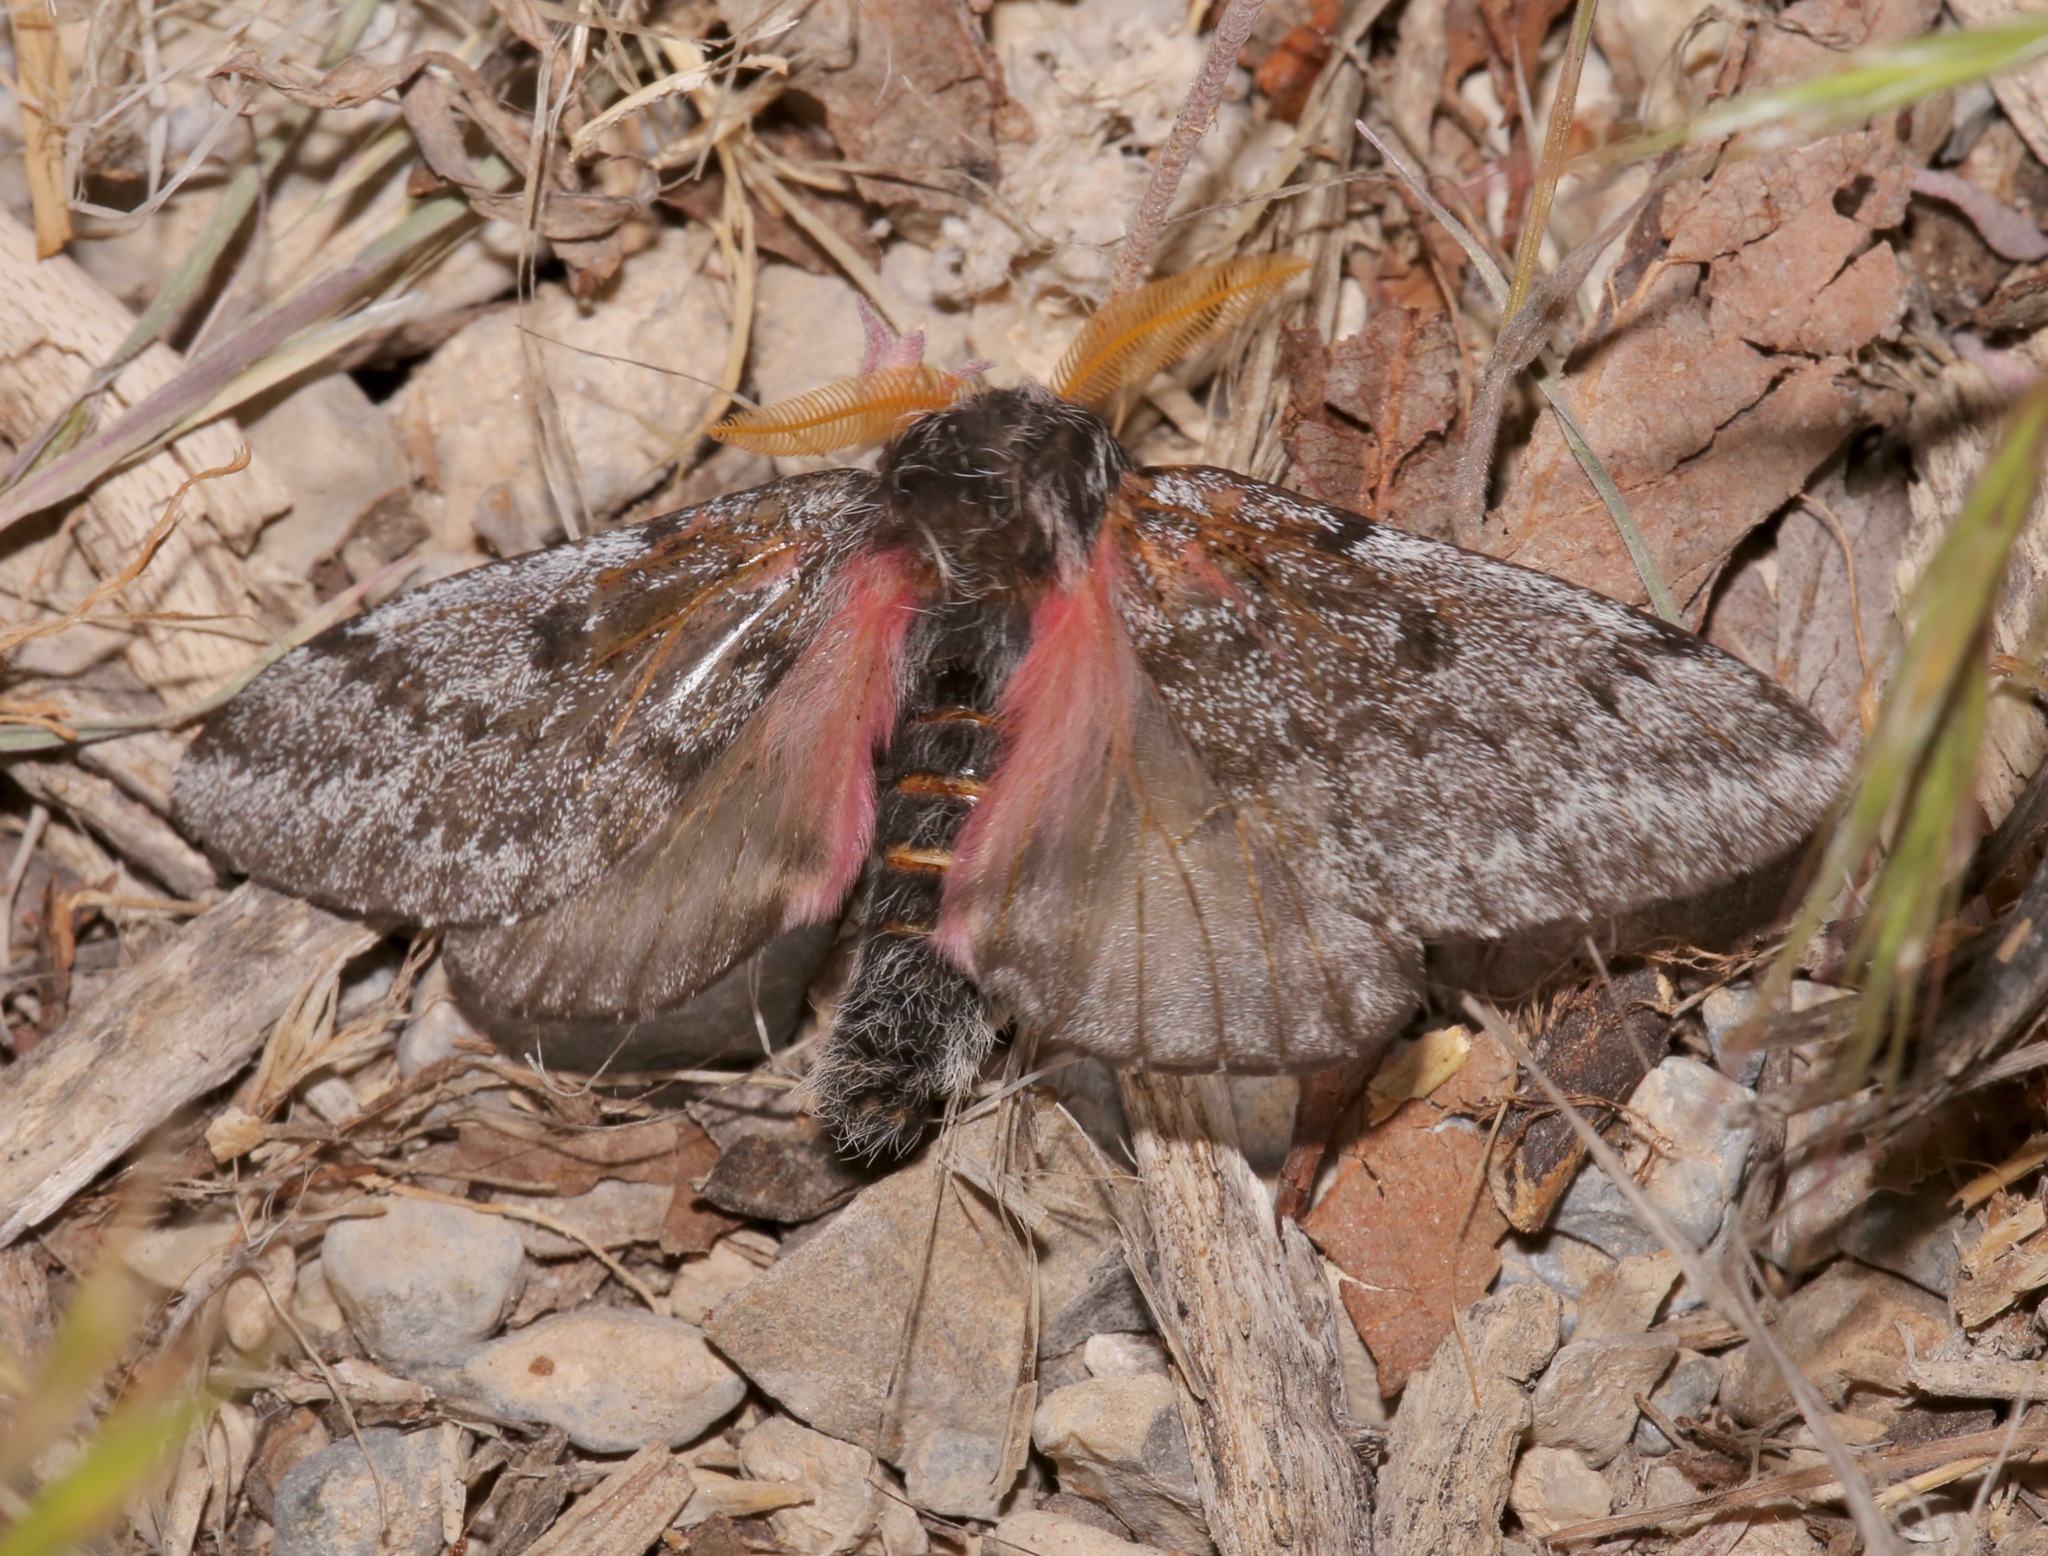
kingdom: Animalia
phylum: Arthropoda
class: Insecta
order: Lepidoptera
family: Saturniidae
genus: Coloradia
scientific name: Coloradia doris
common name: Doris' pinemoth
